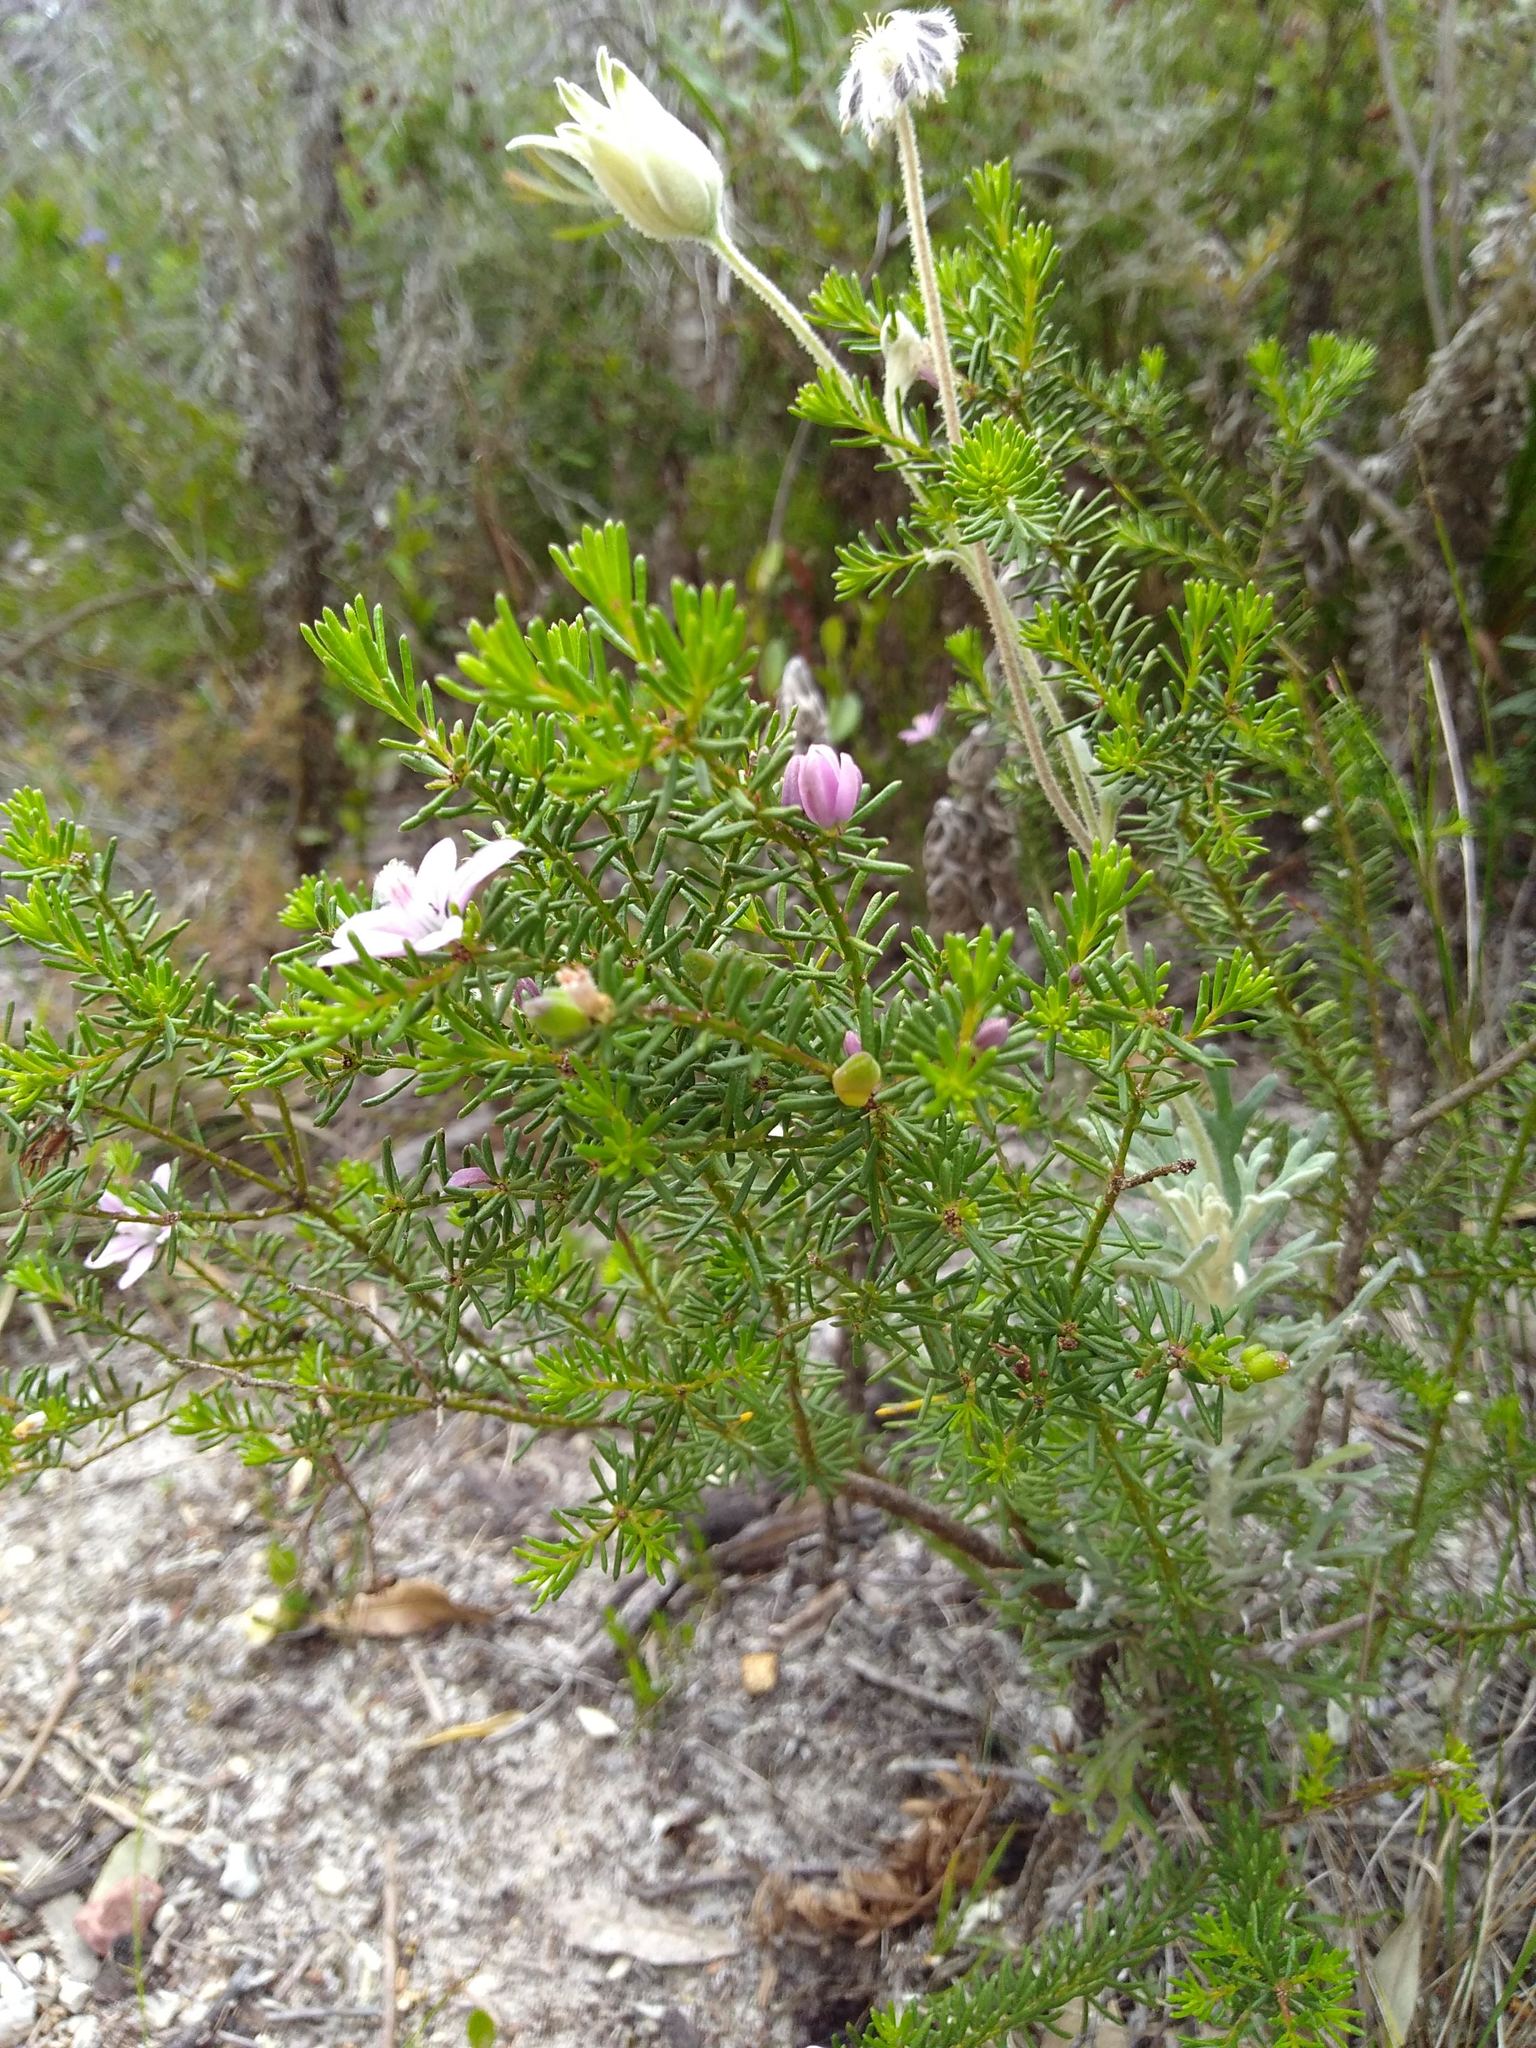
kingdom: Plantae
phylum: Tracheophyta
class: Magnoliopsida
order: Sapindales
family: Rutaceae
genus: Philotheca
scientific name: Philotheca salsolifolia
